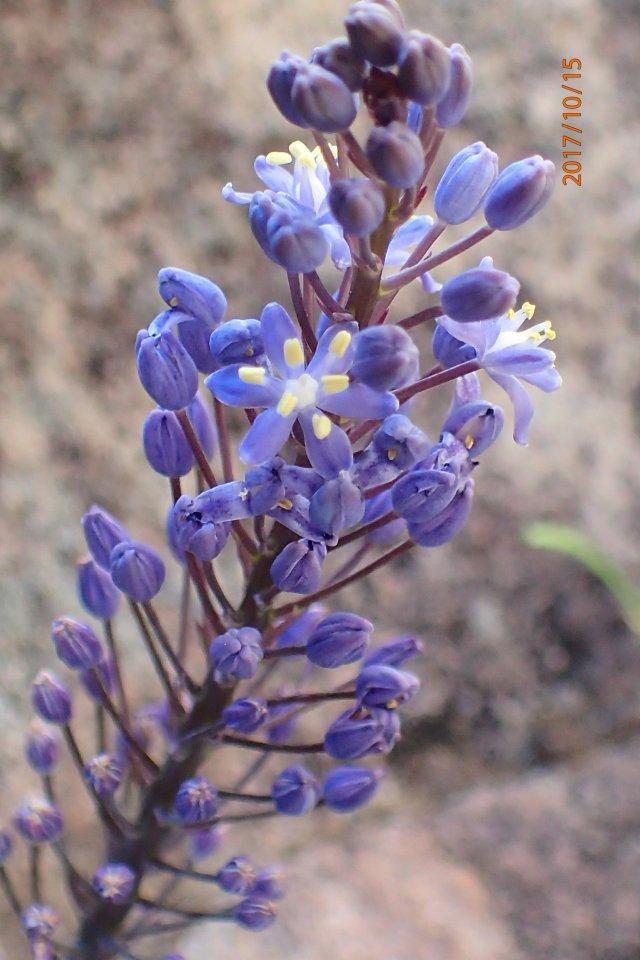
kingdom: Plantae
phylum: Tracheophyta
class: Liliopsida
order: Asparagales
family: Asparagaceae
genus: Merwilla
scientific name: Merwilla dracomontana
